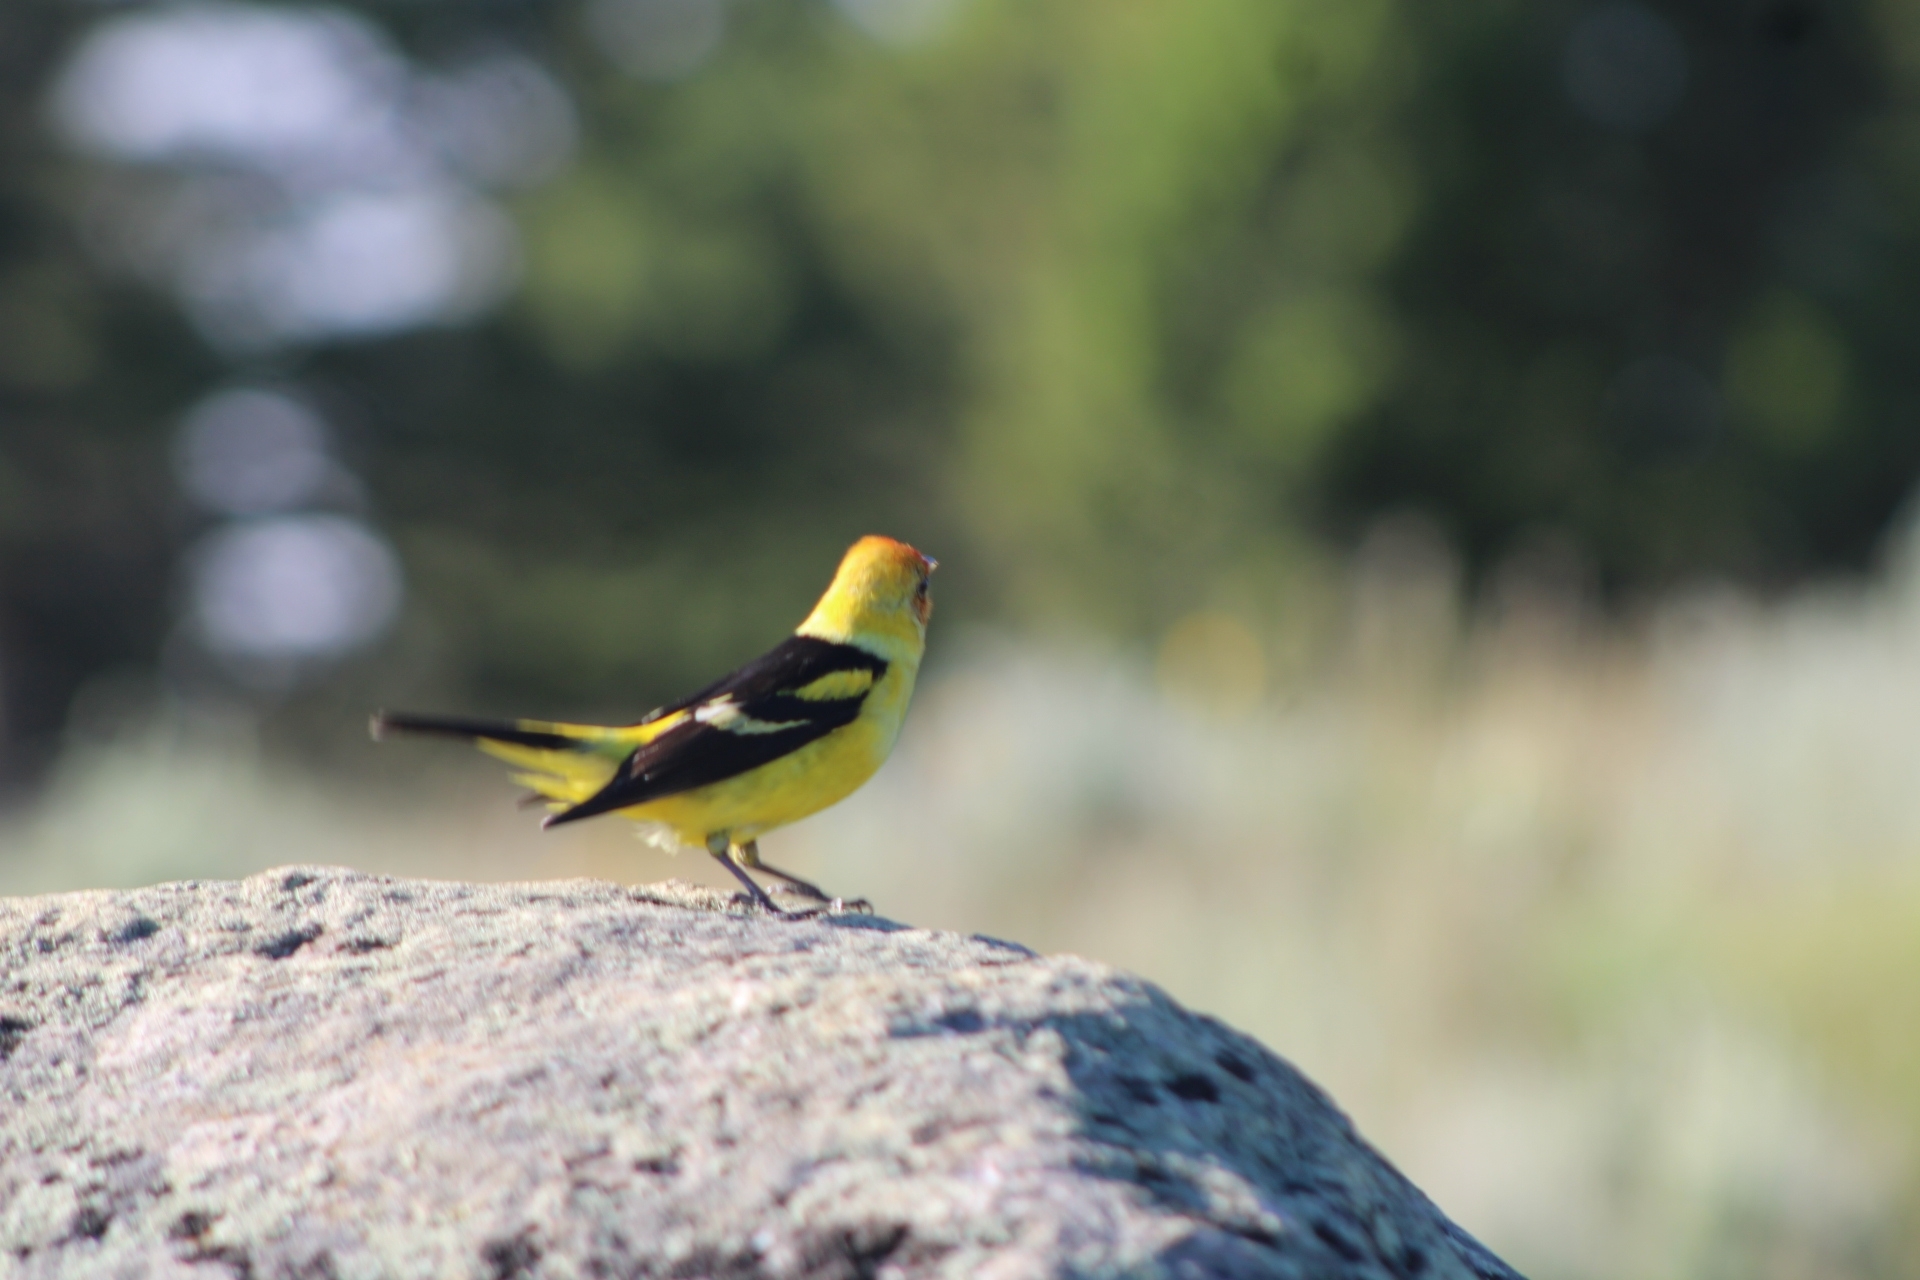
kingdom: Animalia
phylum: Chordata
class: Aves
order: Passeriformes
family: Cardinalidae
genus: Piranga
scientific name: Piranga ludoviciana
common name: Western tanager
